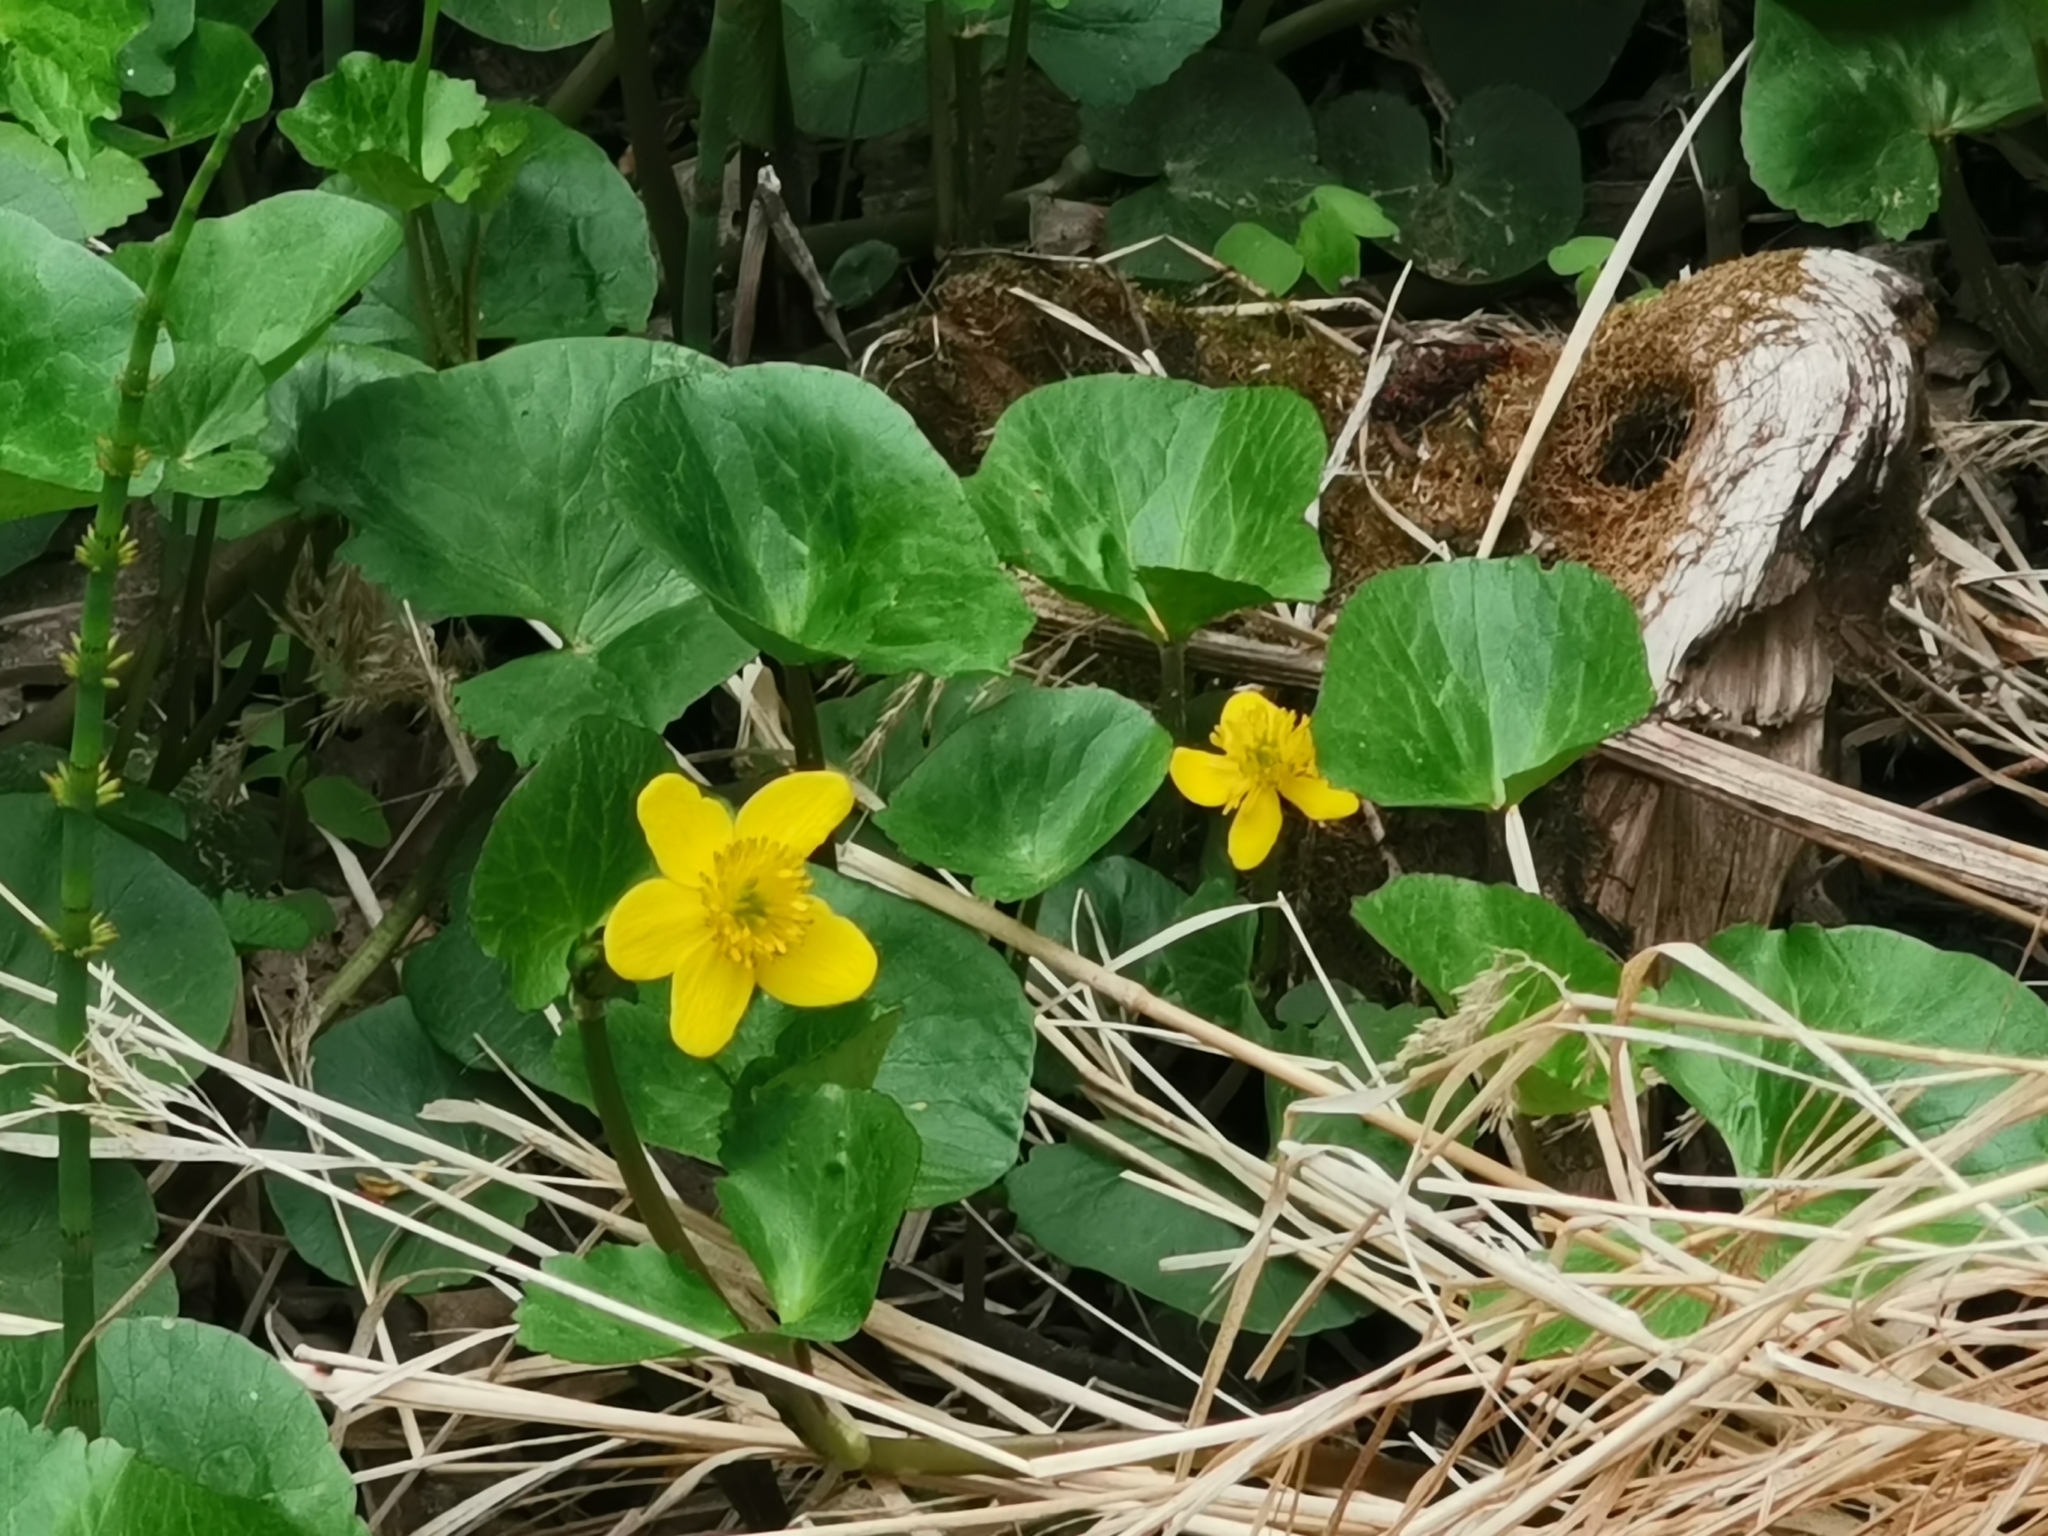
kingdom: Plantae
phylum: Tracheophyta
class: Magnoliopsida
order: Ranunculales
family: Ranunculaceae
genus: Caltha
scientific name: Caltha palustris
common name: Marsh marigold
